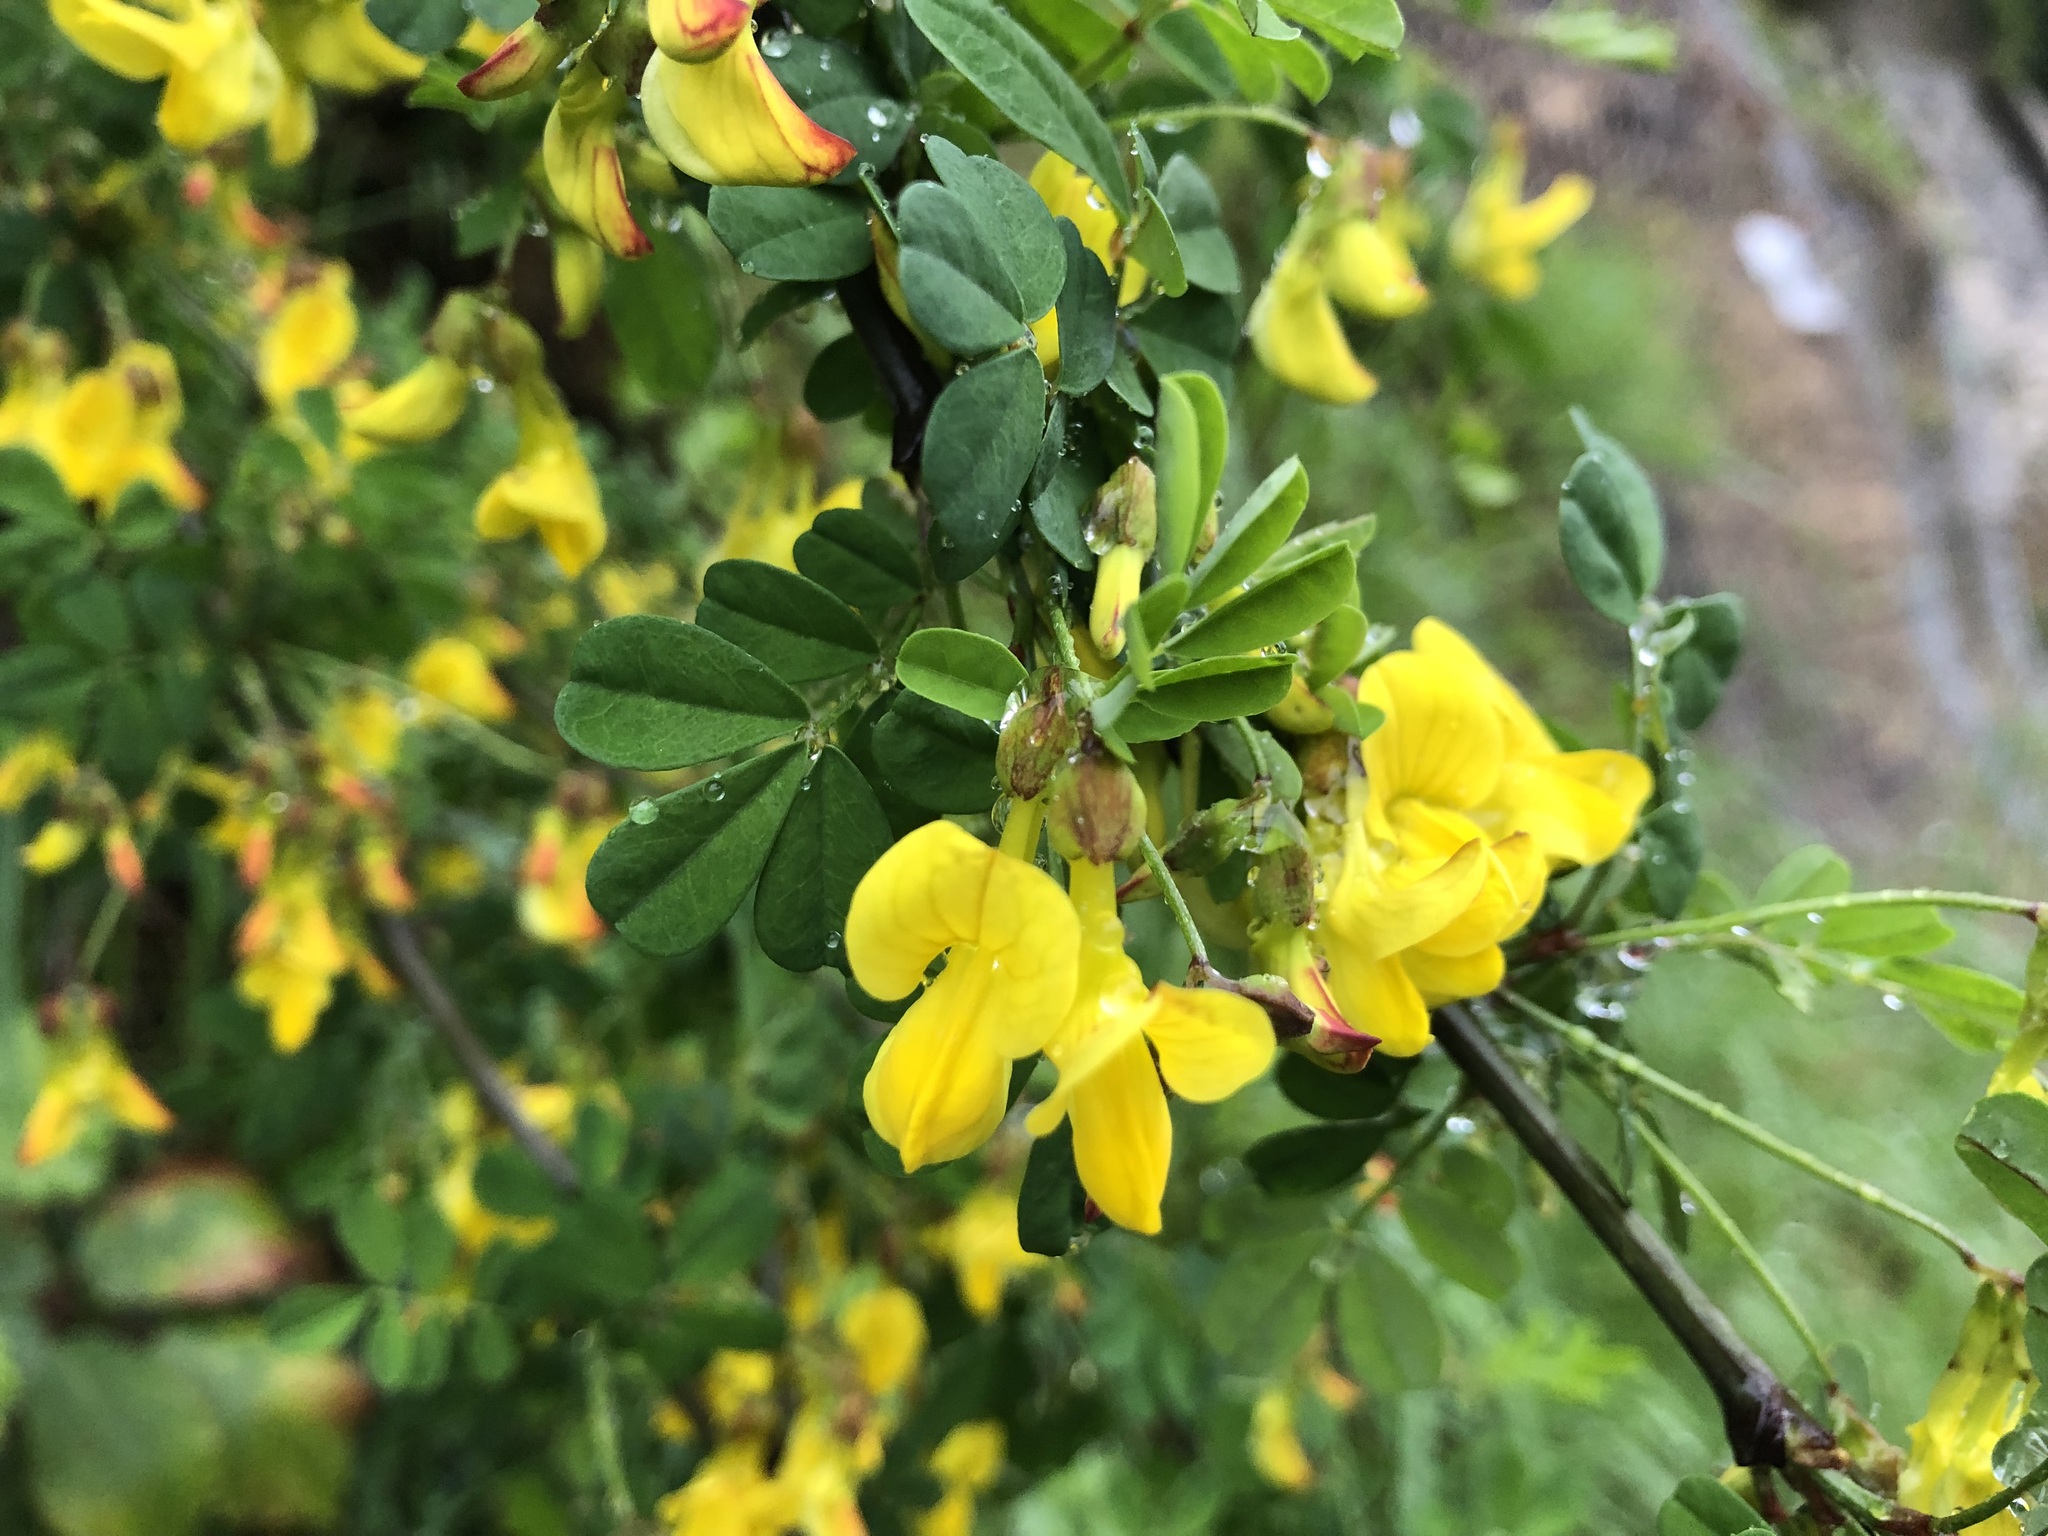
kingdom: Plantae
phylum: Tracheophyta
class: Magnoliopsida
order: Fabales
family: Fabaceae
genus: Hippocrepis
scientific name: Hippocrepis emerus
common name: Scorpion senna
